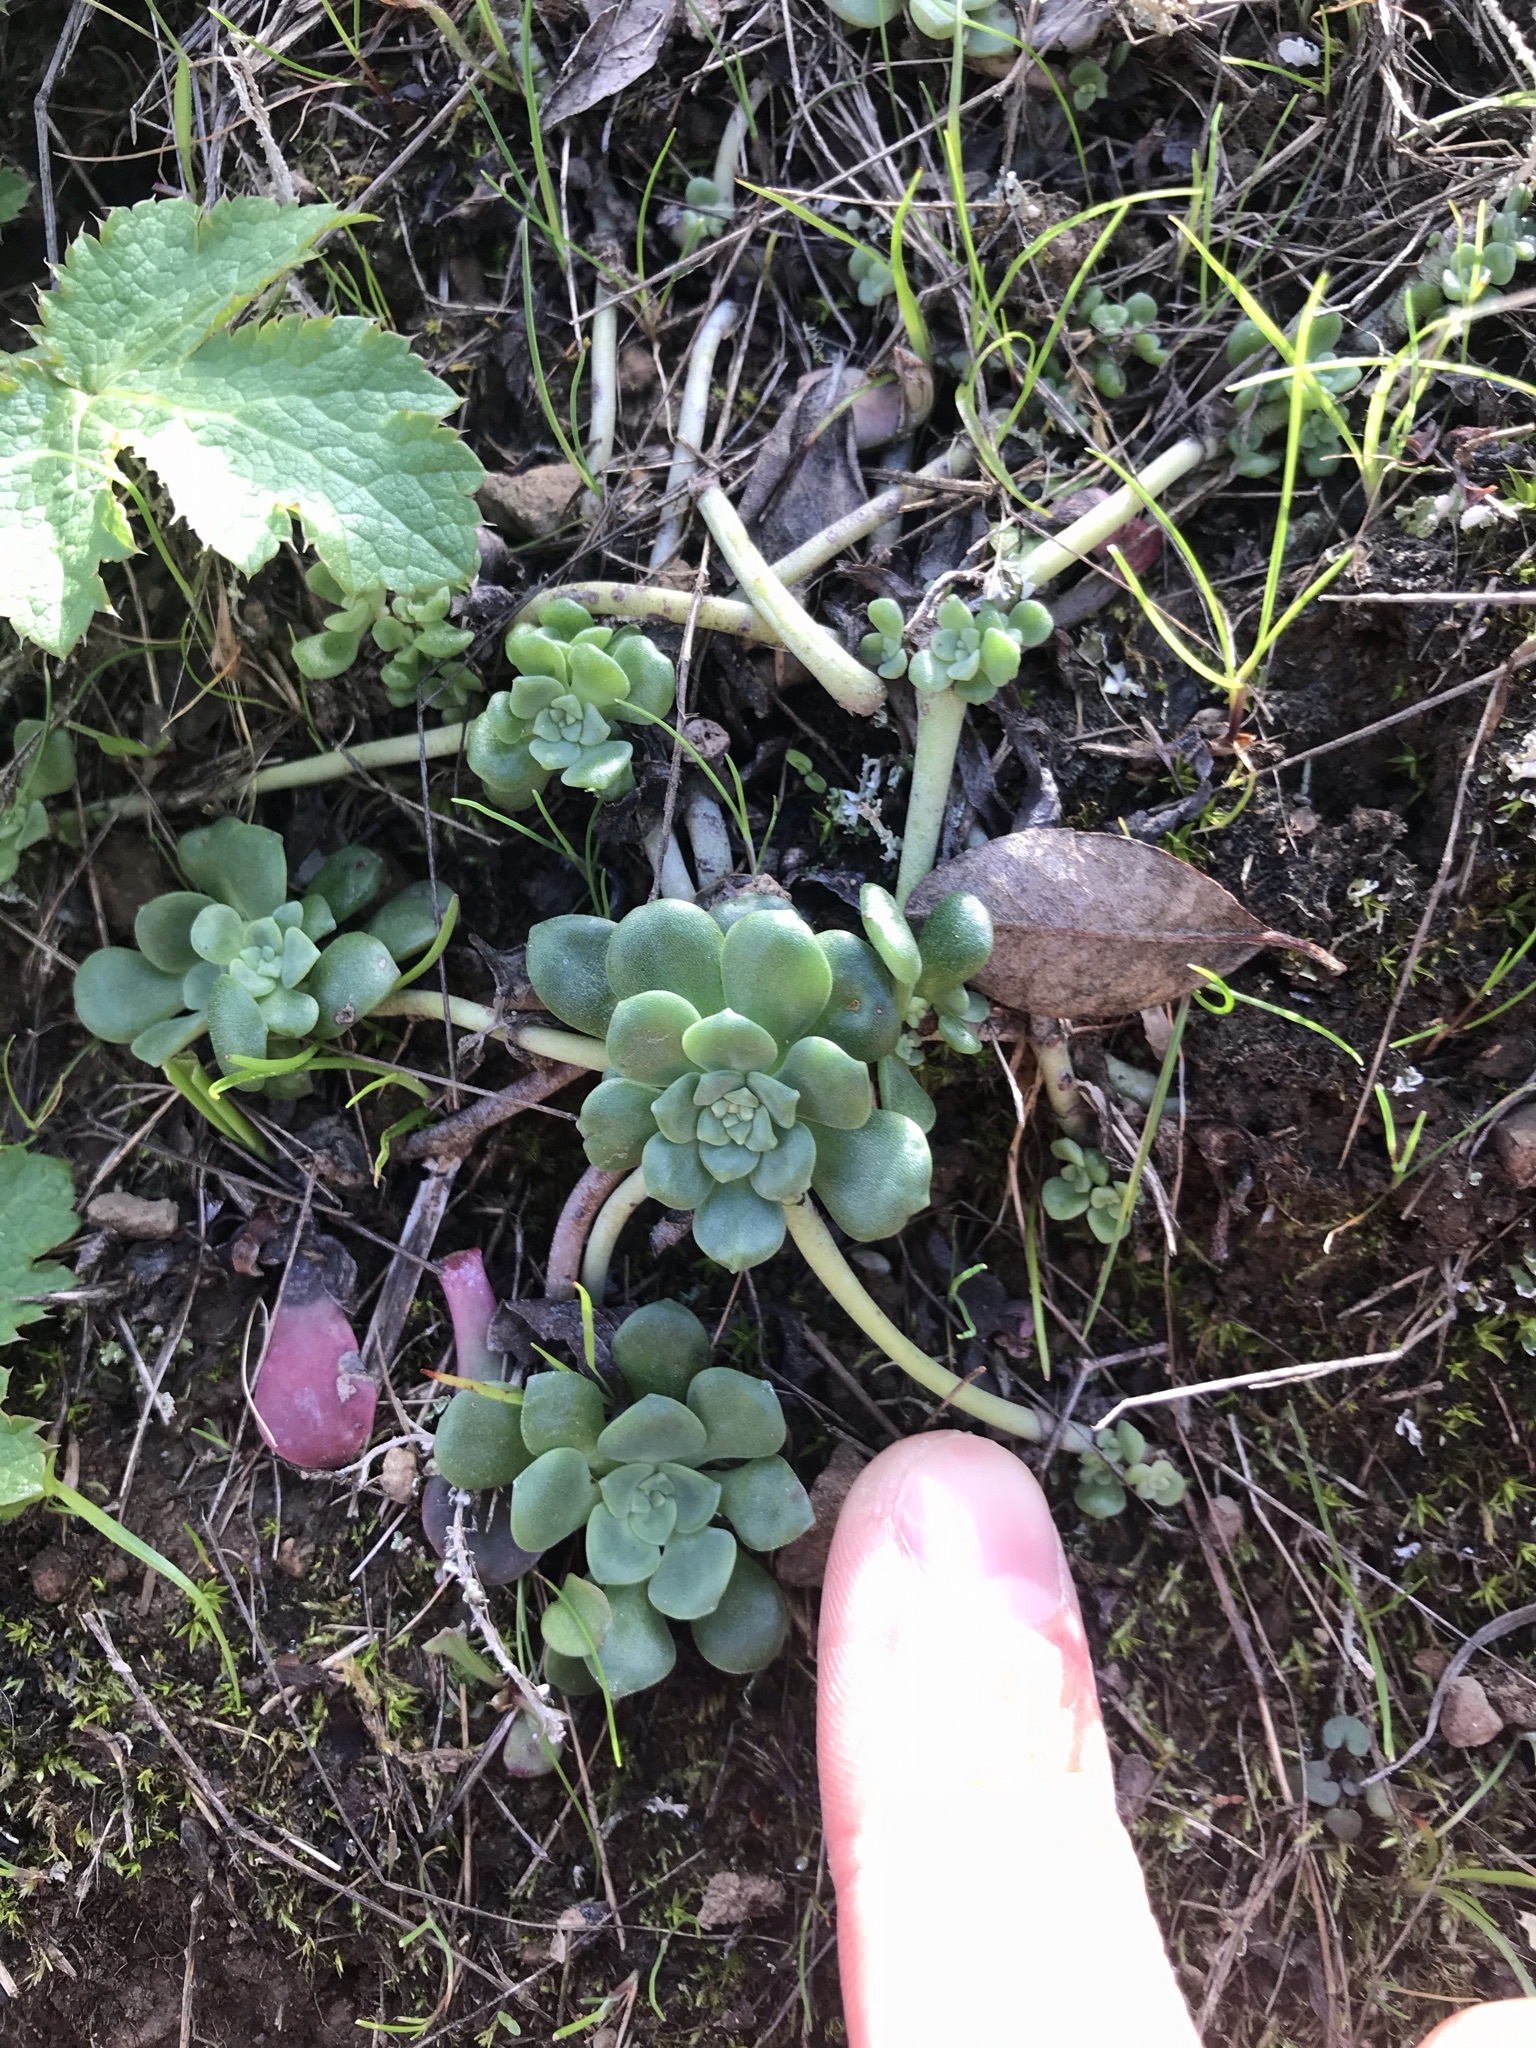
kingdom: Plantae
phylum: Tracheophyta
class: Magnoliopsida
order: Saxifragales
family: Crassulaceae
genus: Sedum
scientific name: Sedum spathulifolium
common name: Colorado stonecrop
